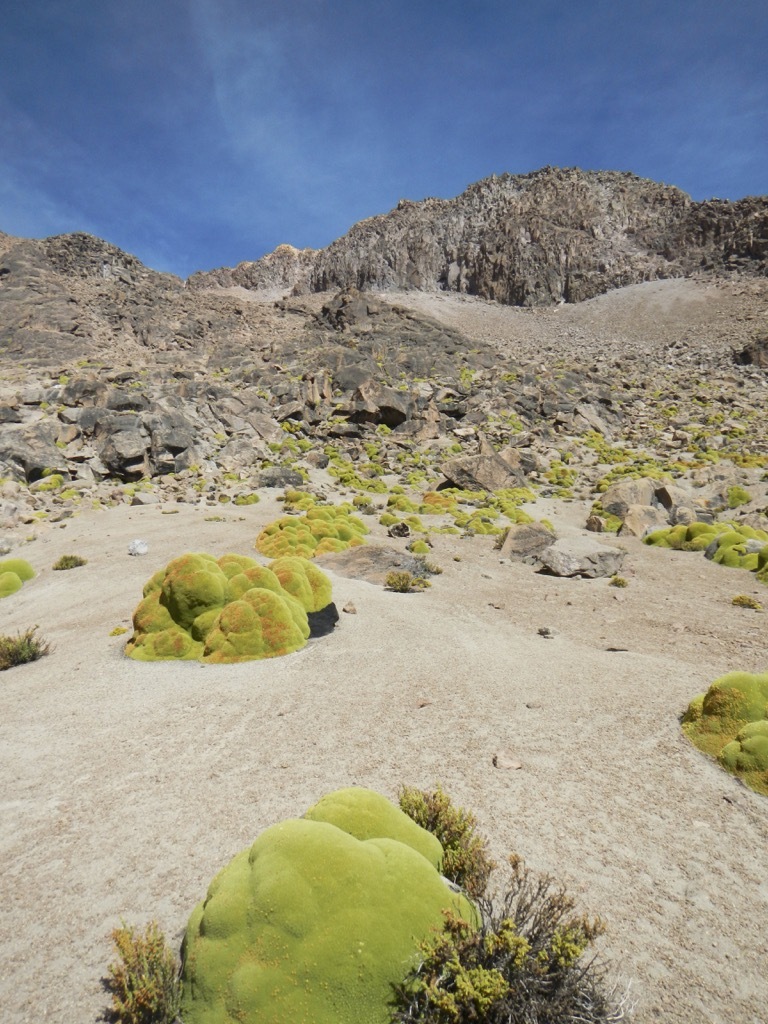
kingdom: Plantae
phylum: Tracheophyta
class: Magnoliopsida
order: Apiales
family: Apiaceae
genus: Azorella
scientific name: Azorella compacta
